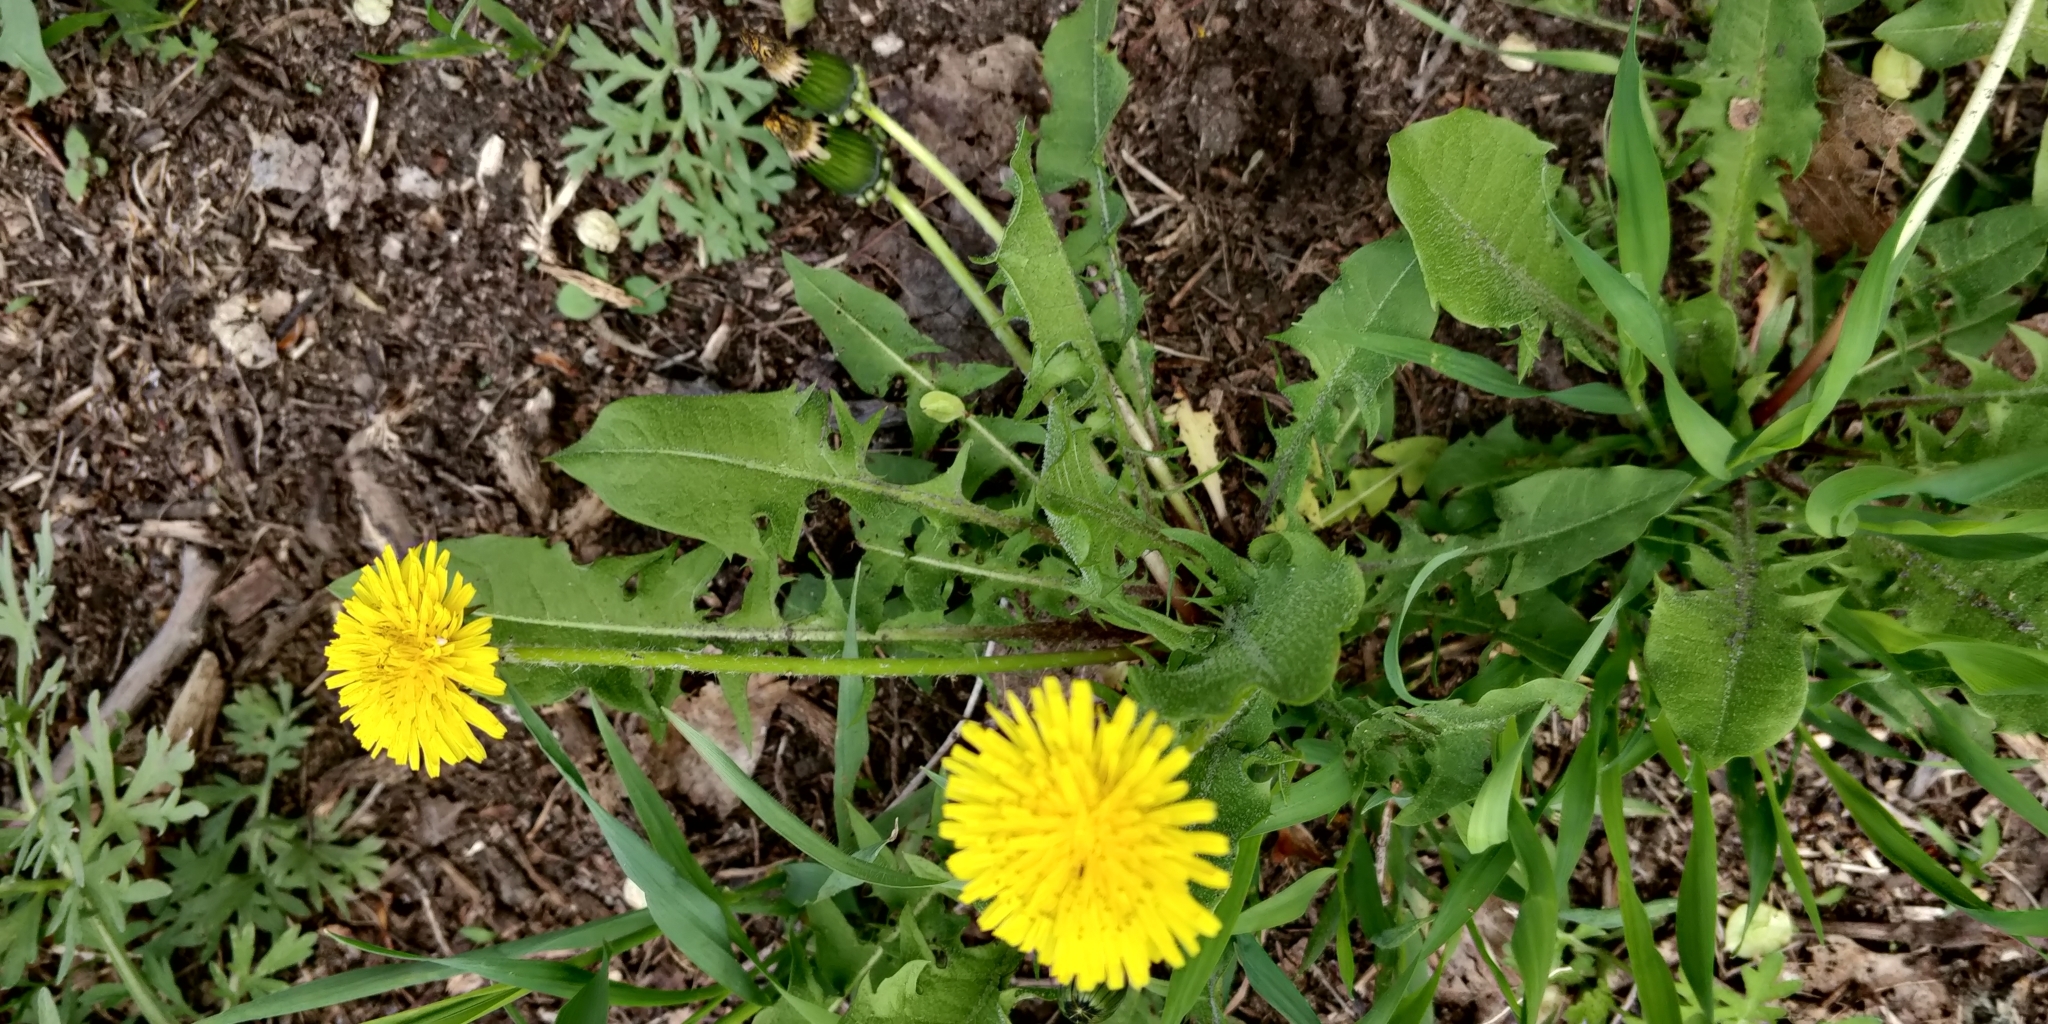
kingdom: Plantae
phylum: Tracheophyta
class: Magnoliopsida
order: Asterales
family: Asteraceae
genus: Taraxacum
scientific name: Taraxacum
